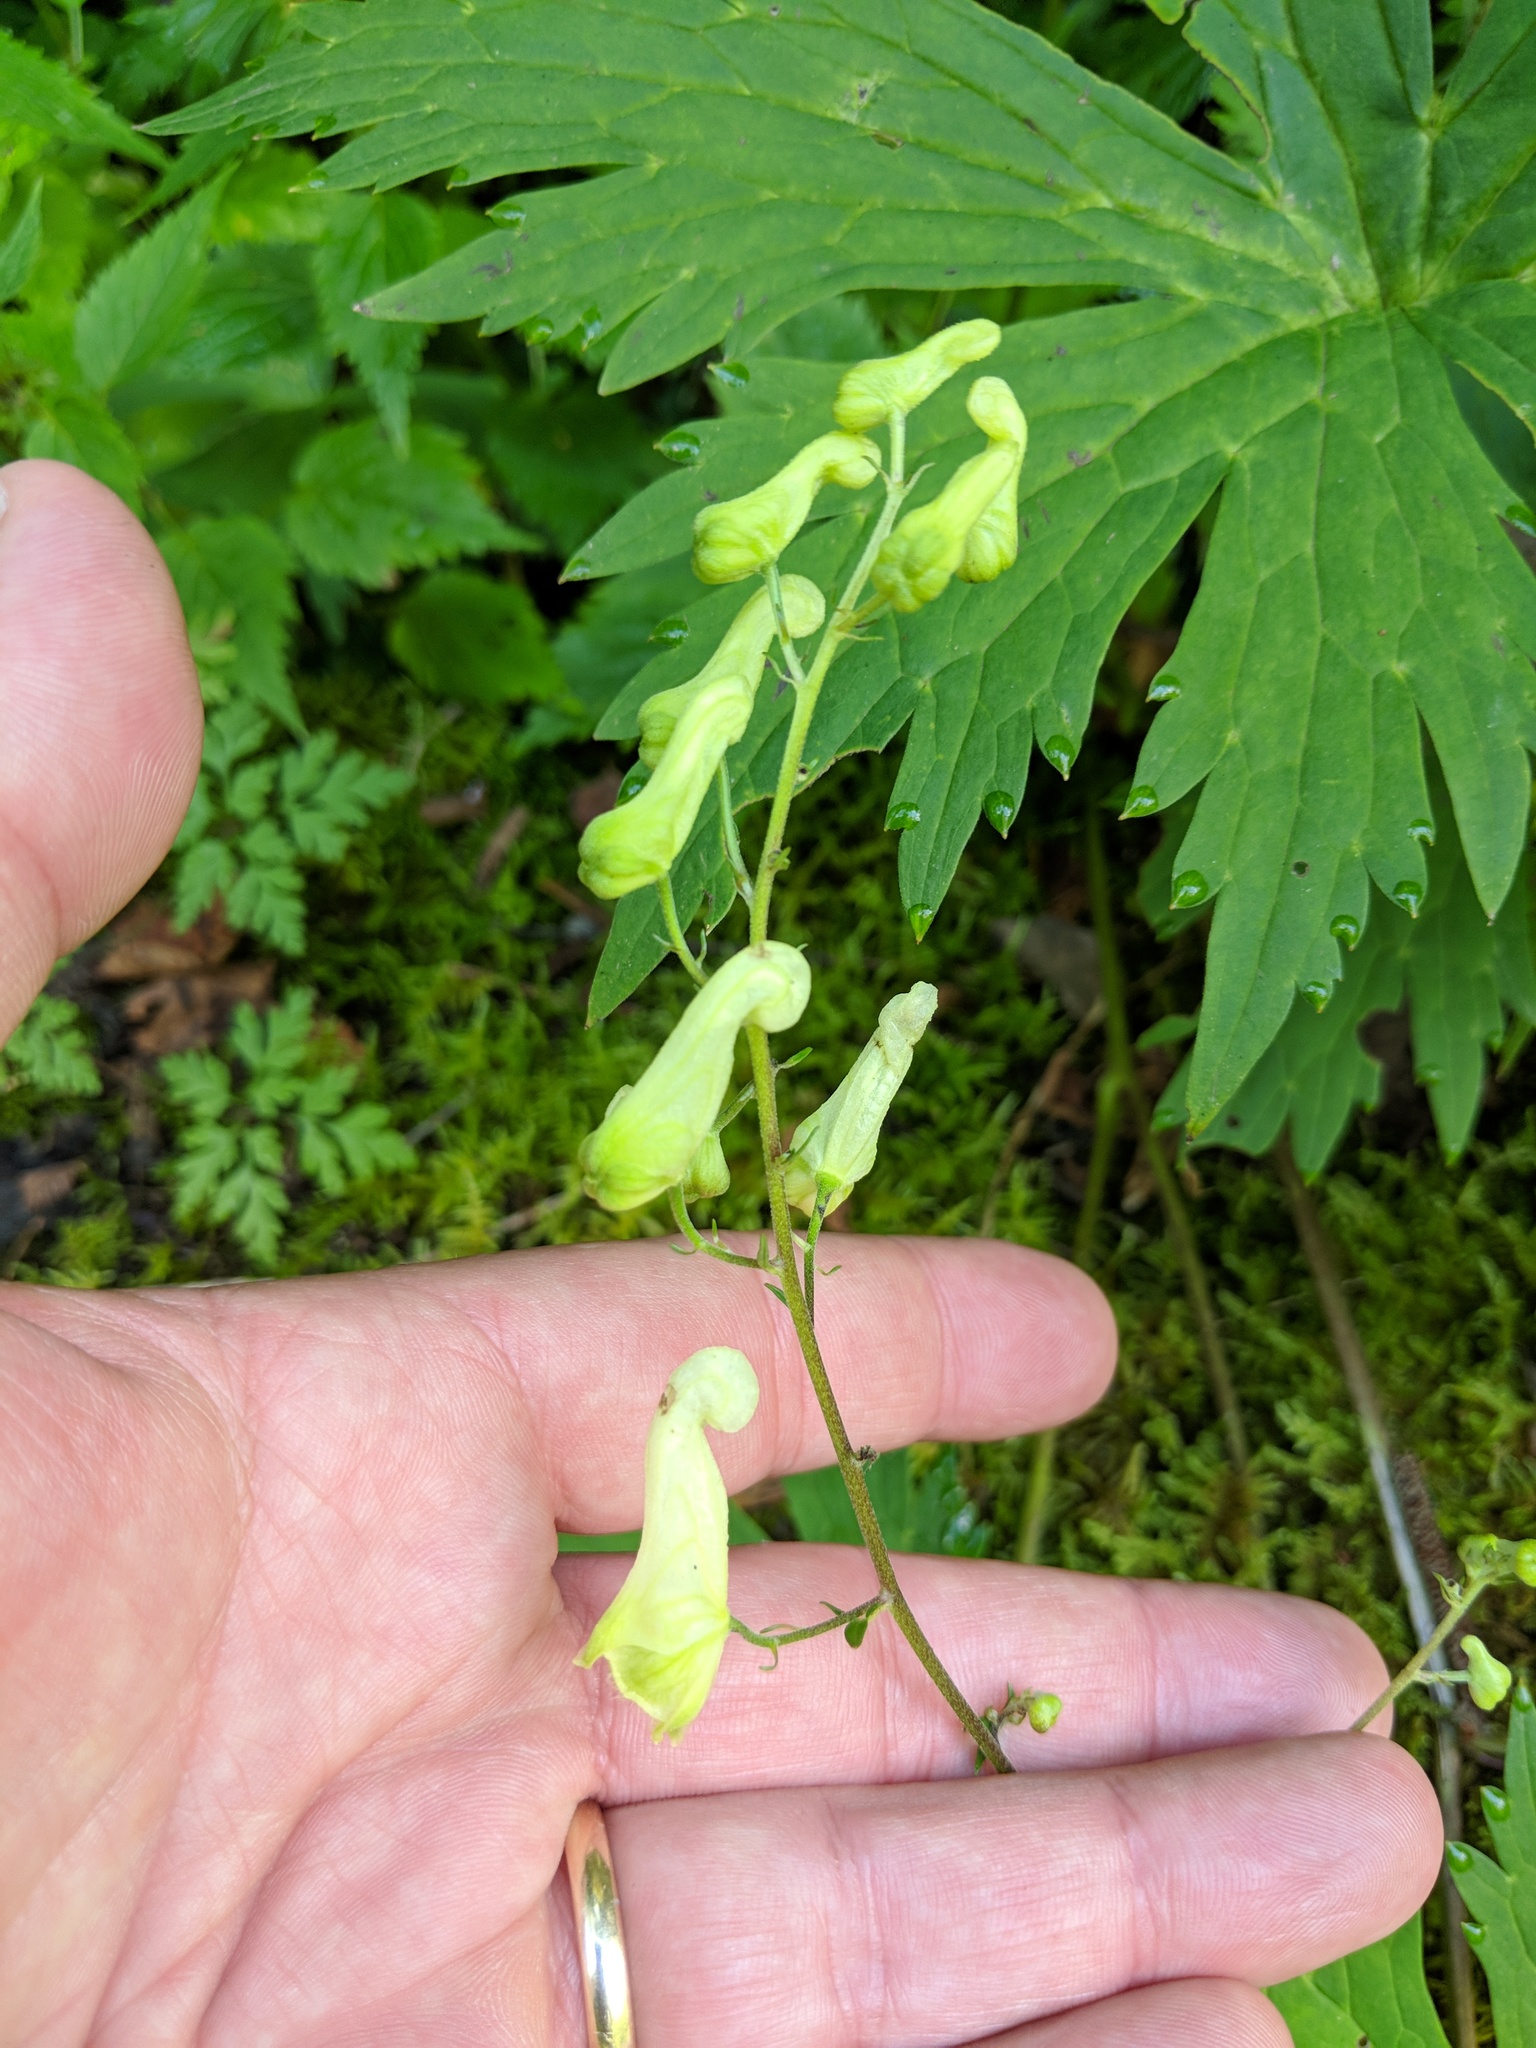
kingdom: Plantae
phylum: Tracheophyta
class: Magnoliopsida
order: Ranunculales
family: Ranunculaceae
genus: Aconitum
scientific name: Aconitum lycoctonum
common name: Wolf's-bane
